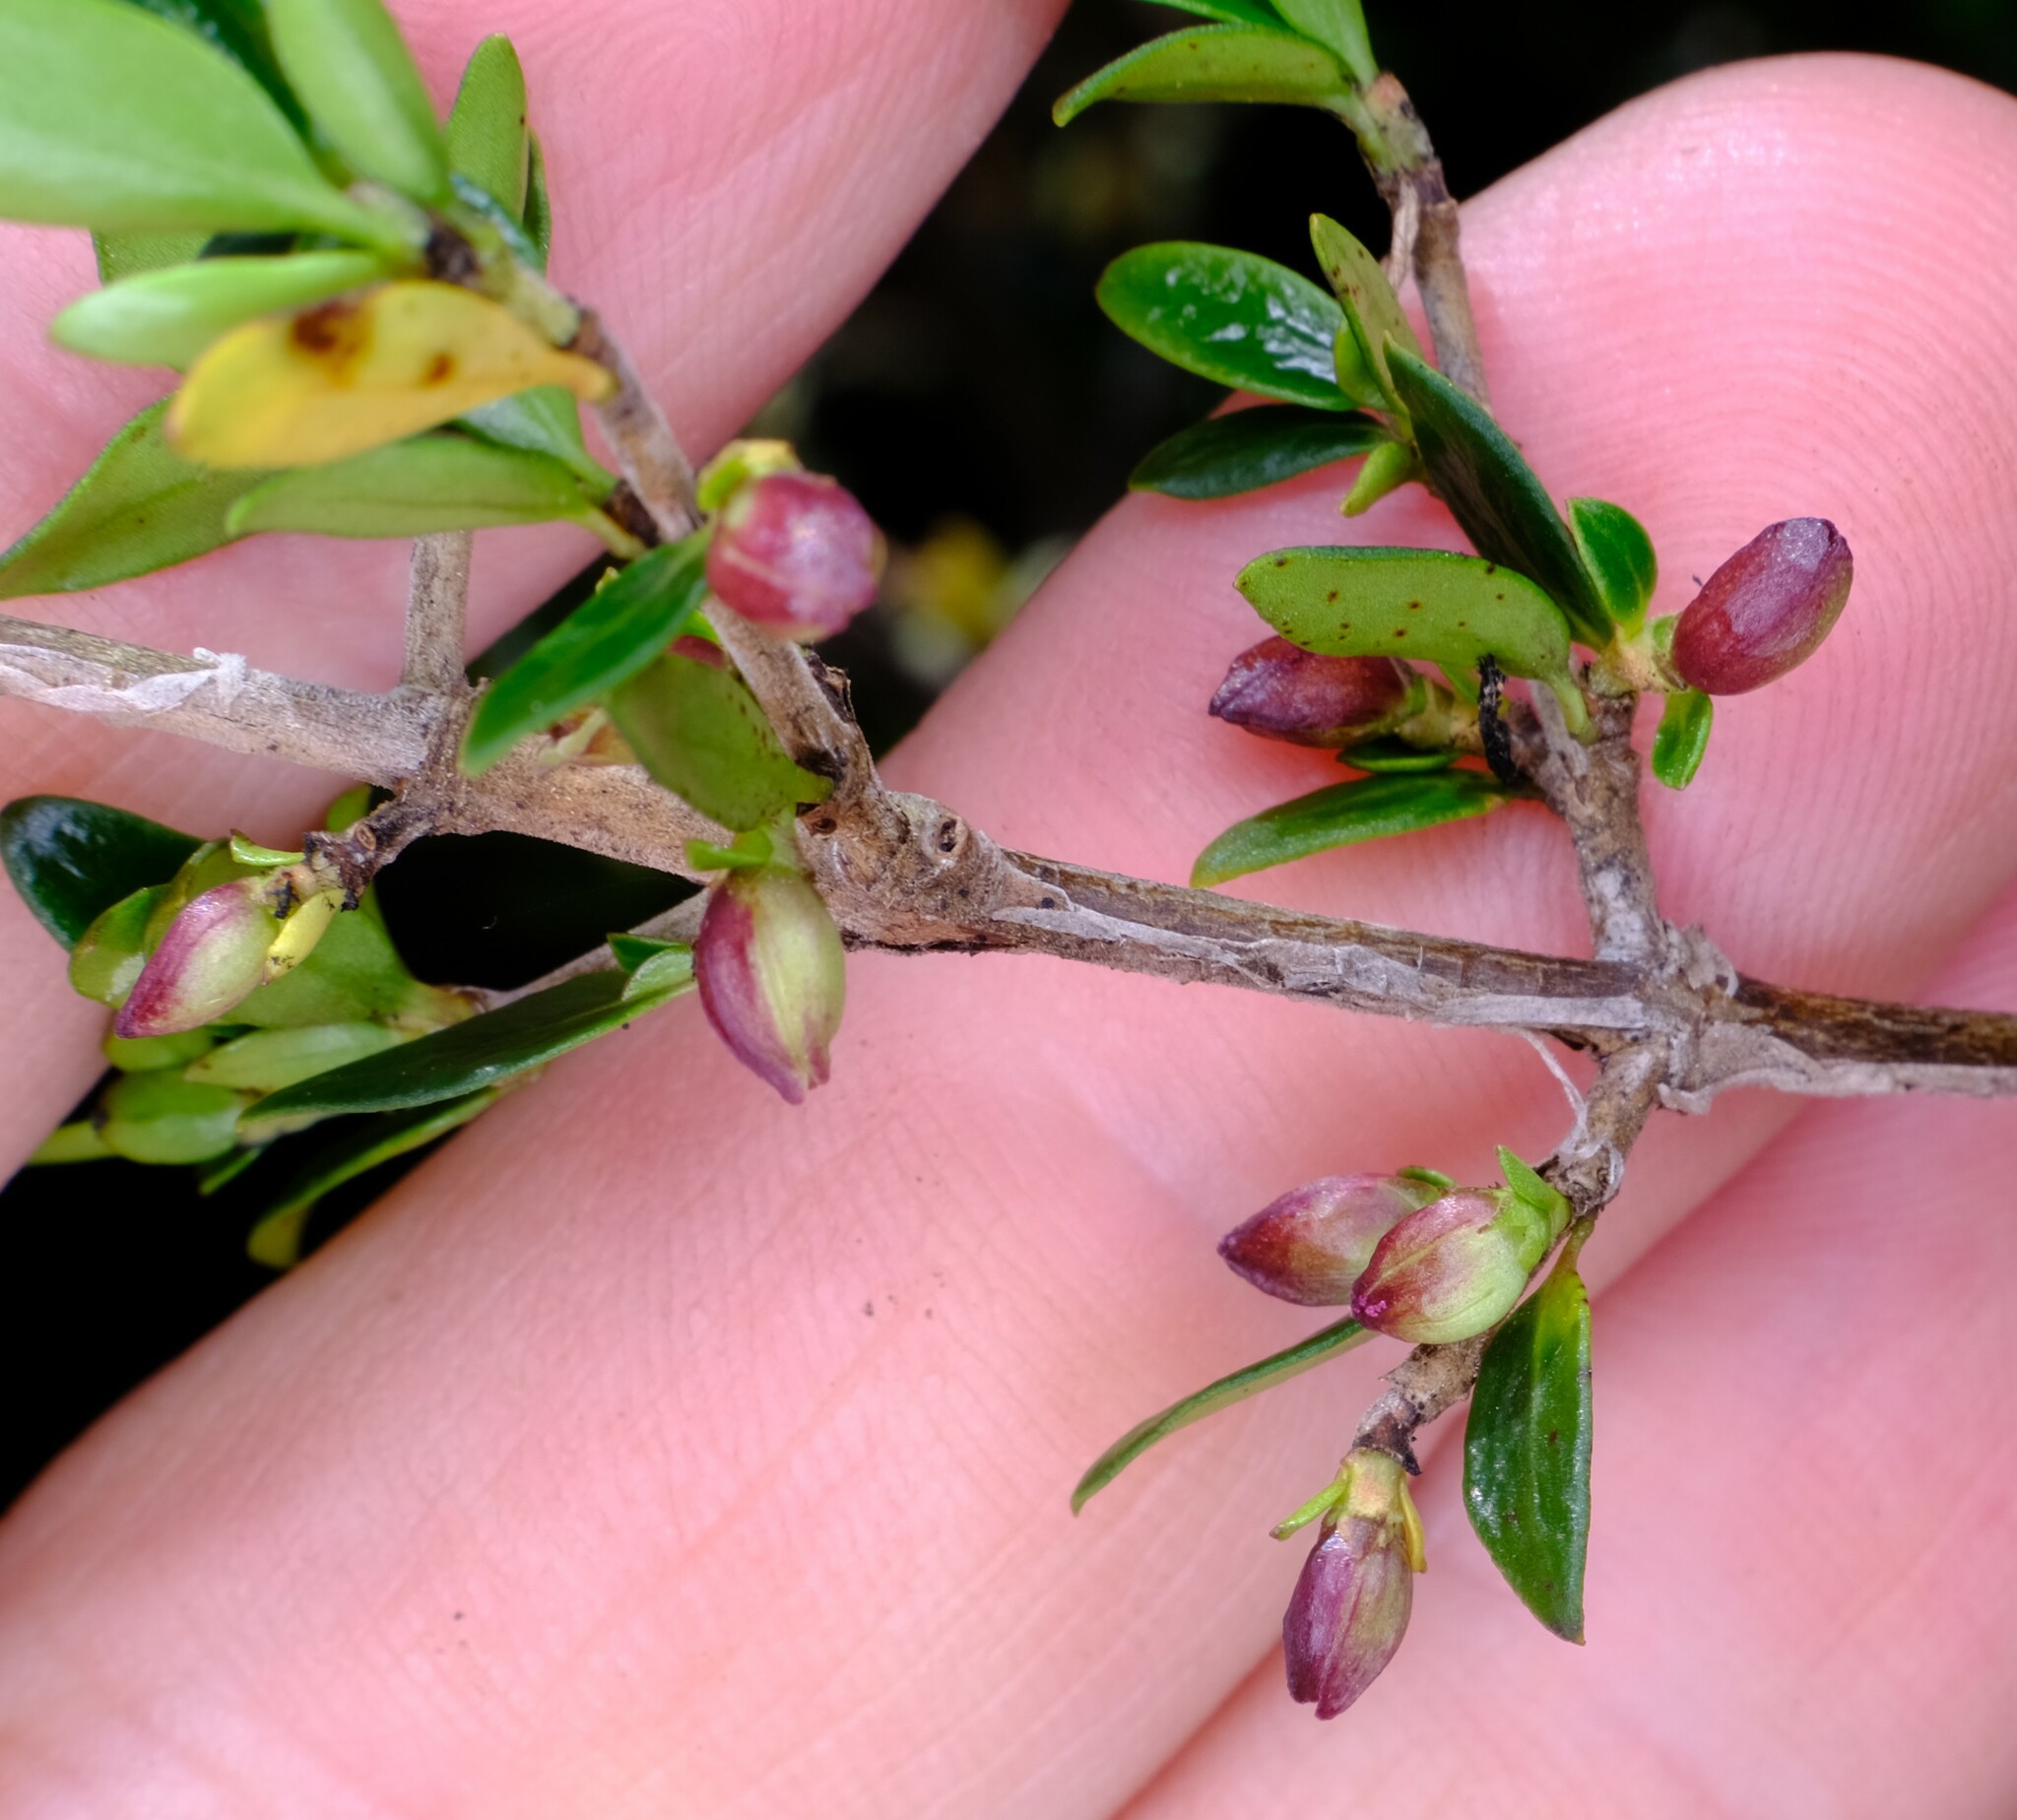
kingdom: Plantae
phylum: Tracheophyta
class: Magnoliopsida
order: Gentianales
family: Rubiaceae
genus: Coprosma
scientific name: Coprosma nitida
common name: Shining coprosma
